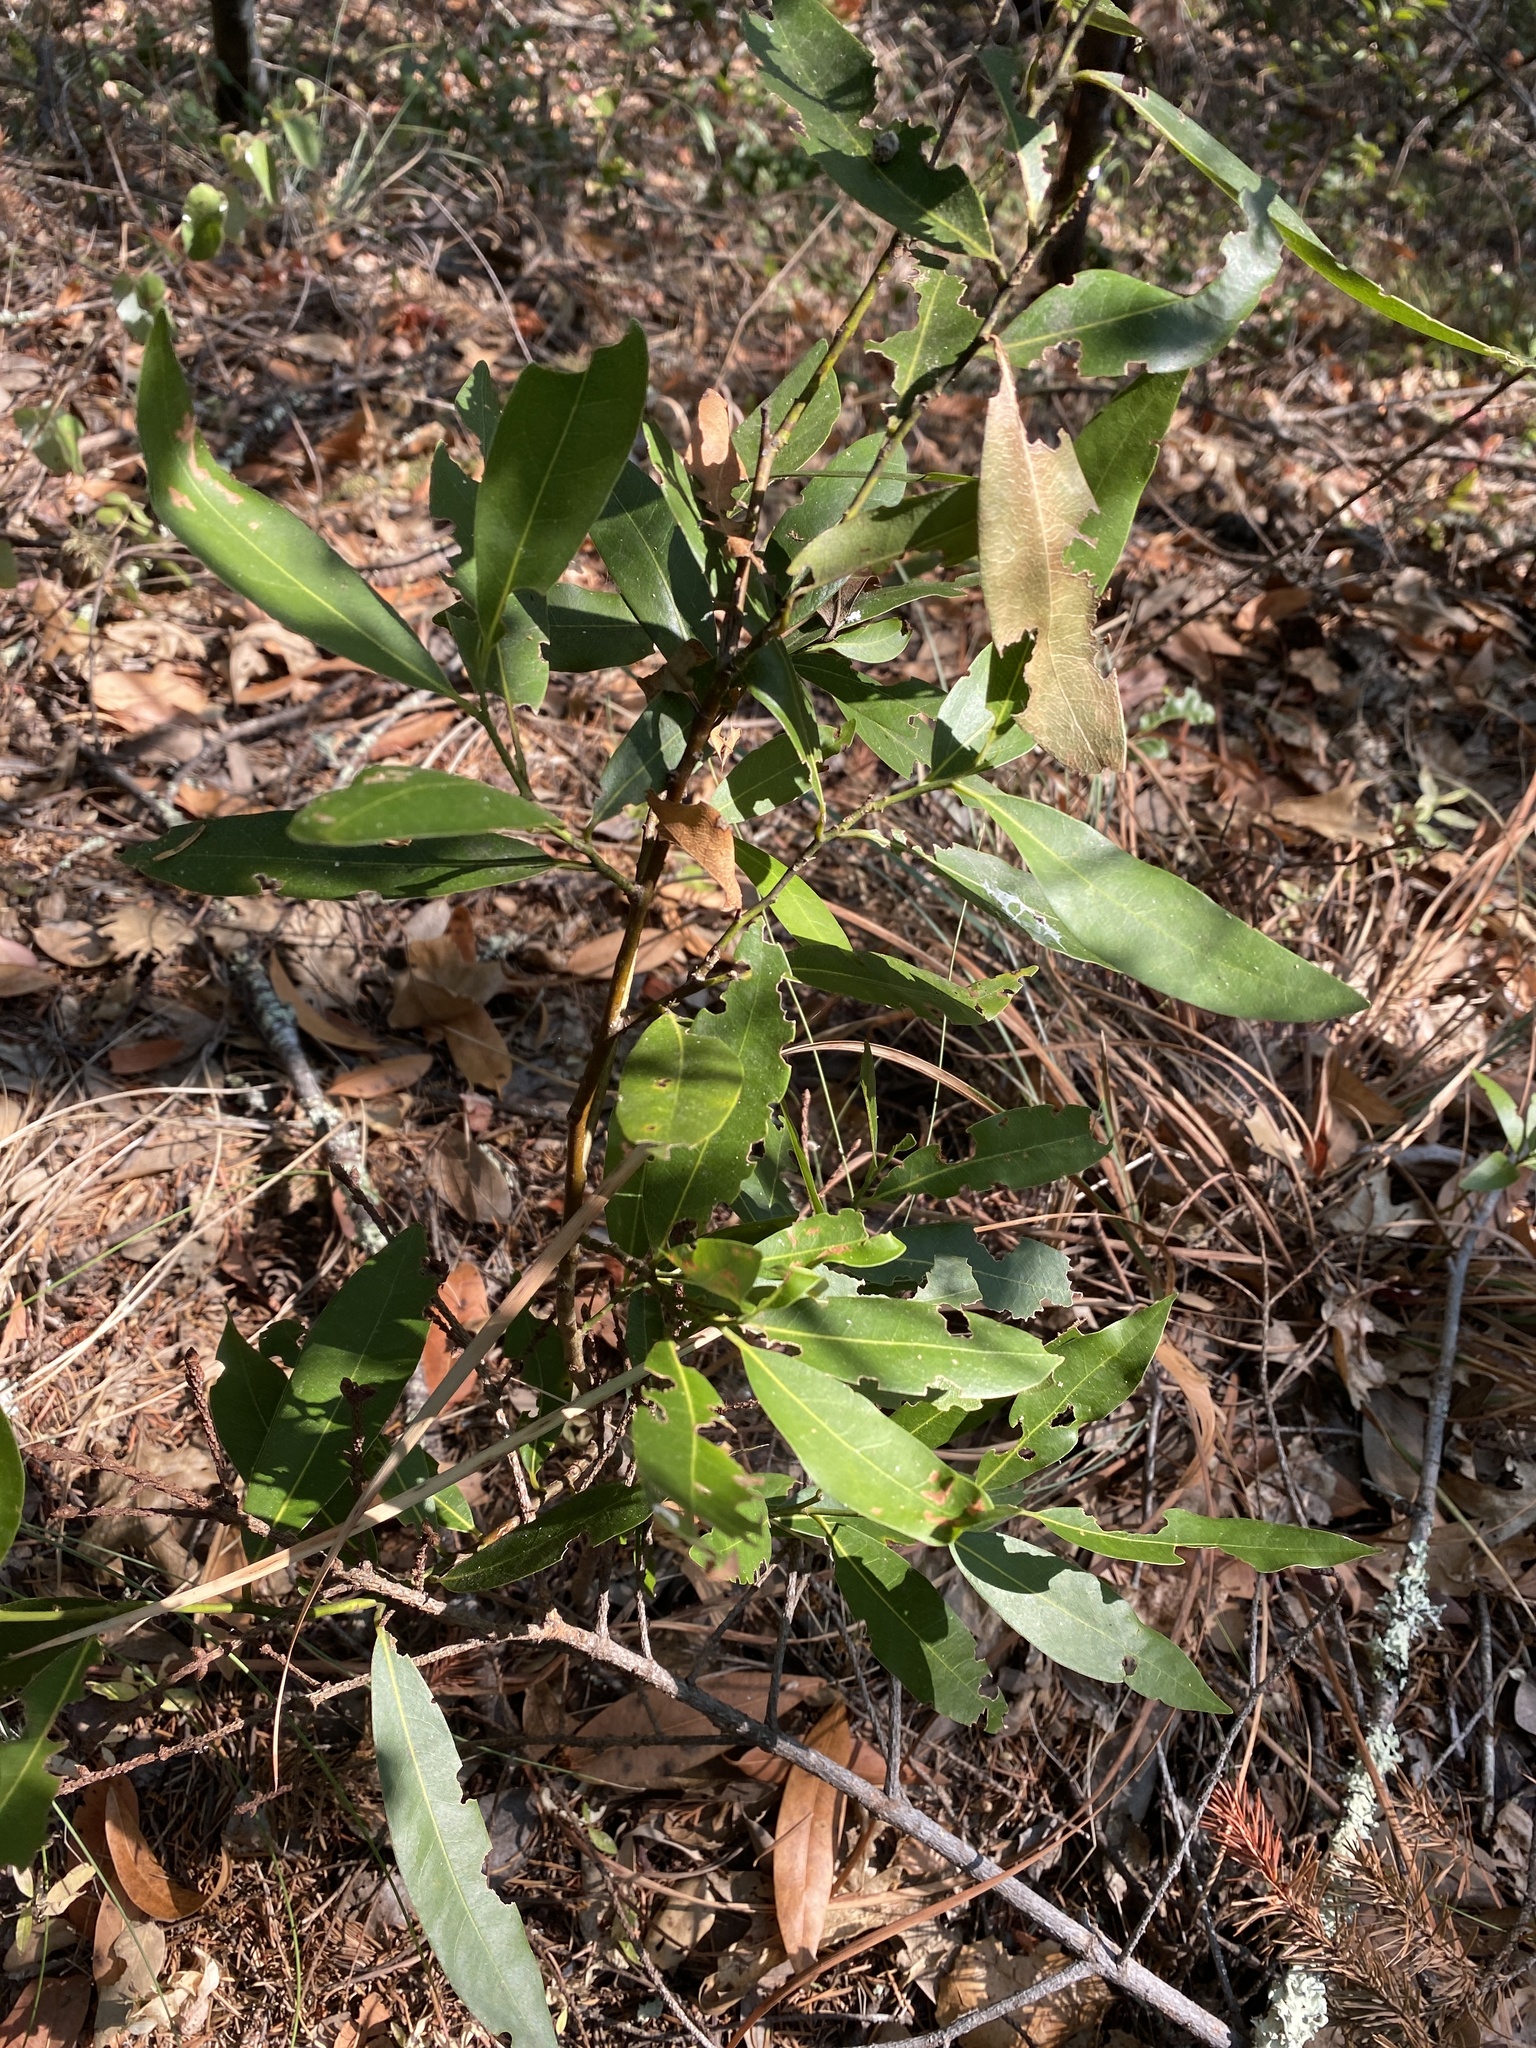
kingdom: Plantae
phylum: Tracheophyta
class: Magnoliopsida
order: Laurales
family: Lauraceae
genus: Umbellularia
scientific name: Umbellularia californica
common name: California bay
